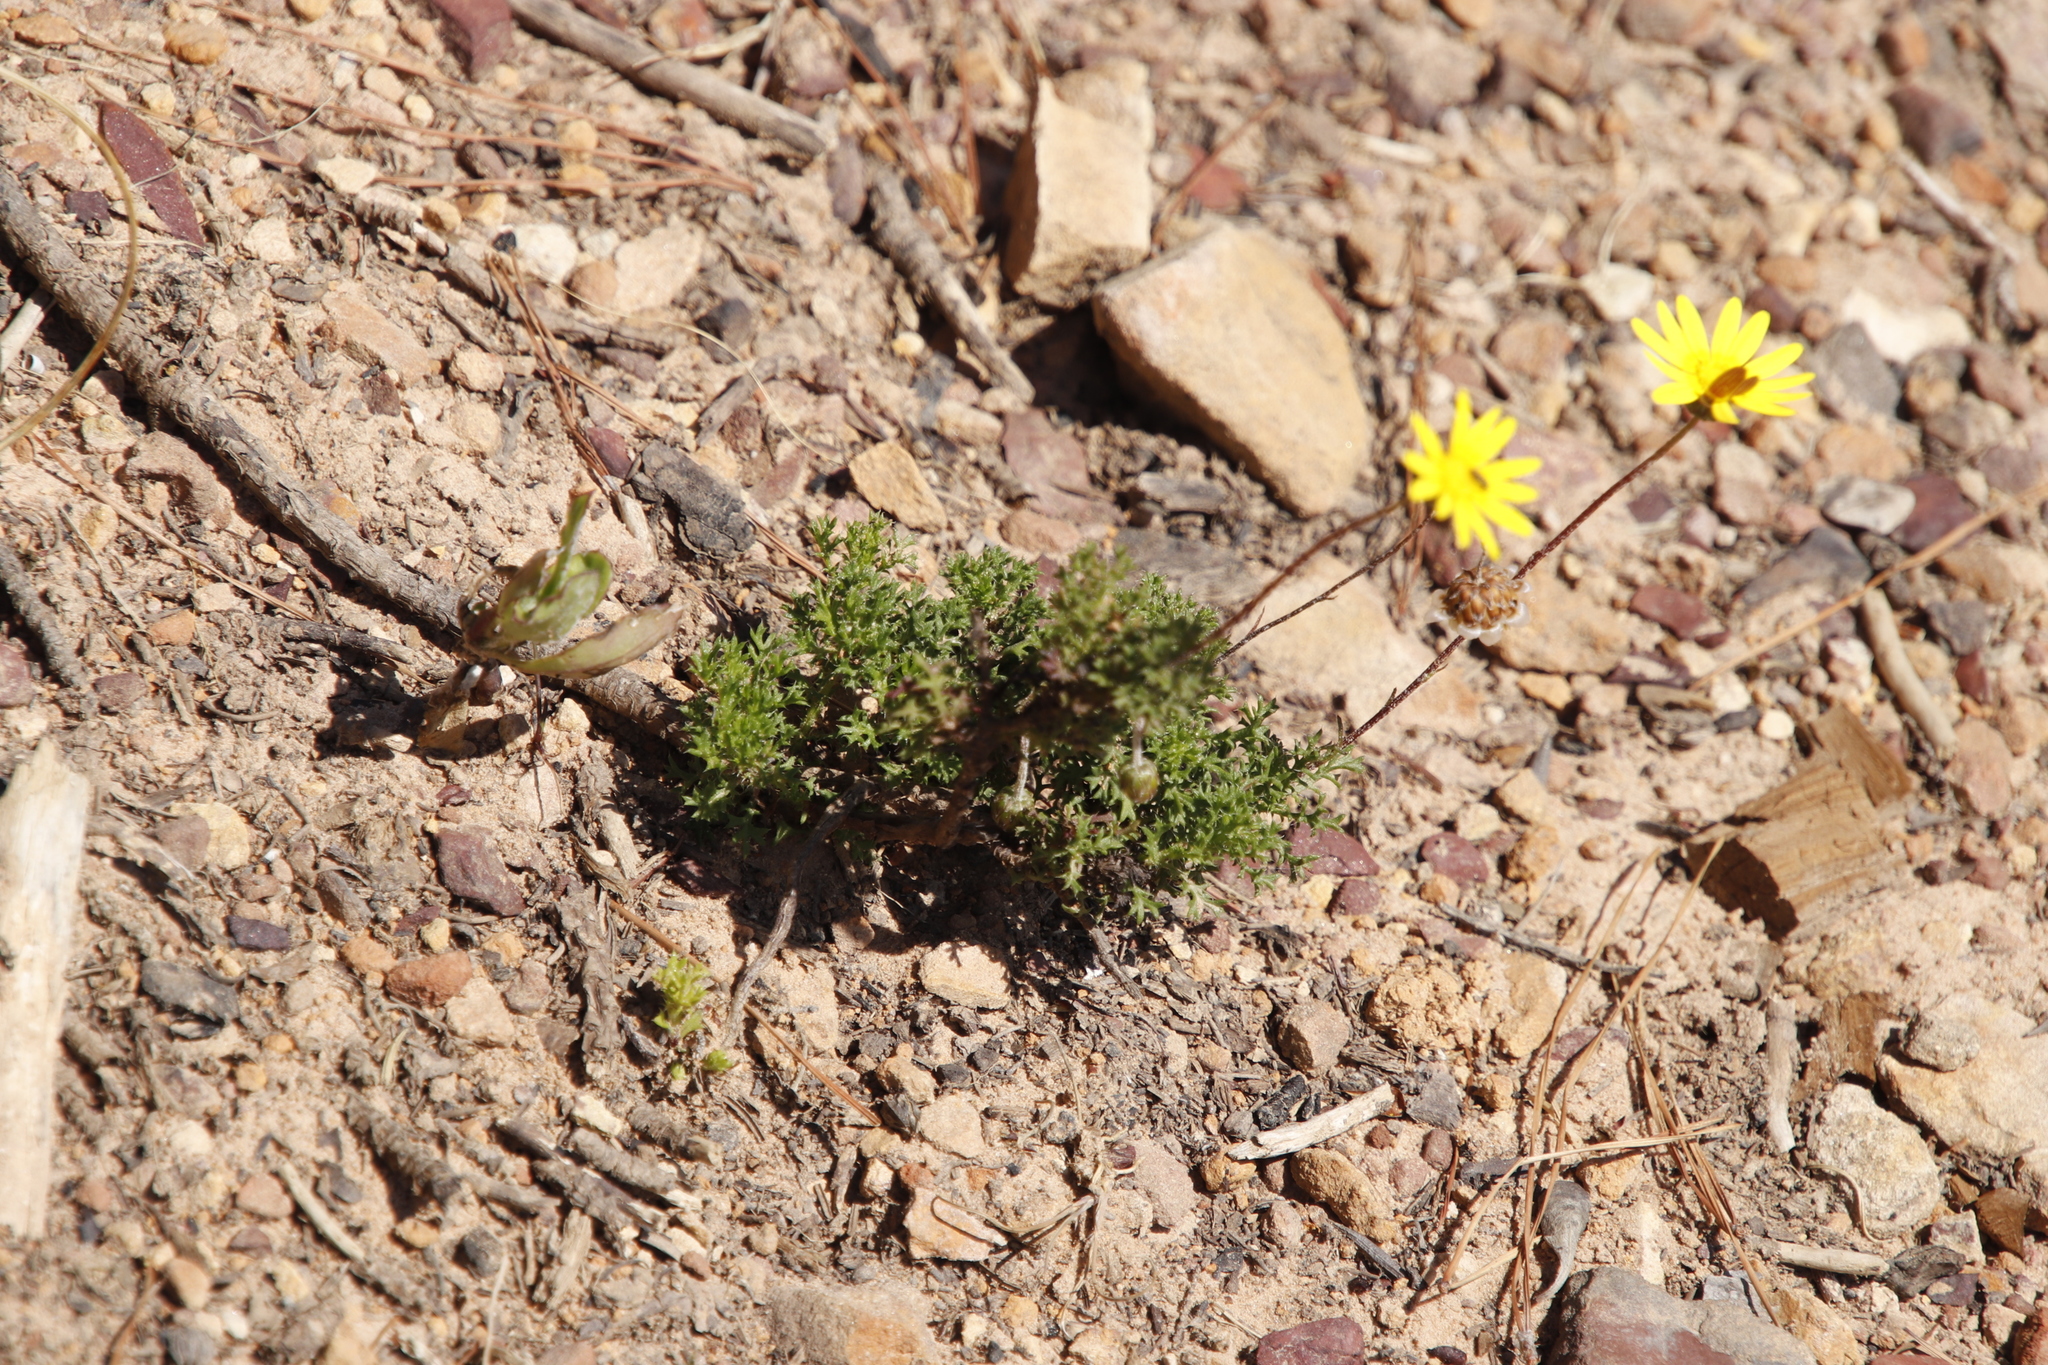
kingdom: Plantae
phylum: Tracheophyta
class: Magnoliopsida
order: Asterales
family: Asteraceae
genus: Ursinia
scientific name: Ursinia paleacea
